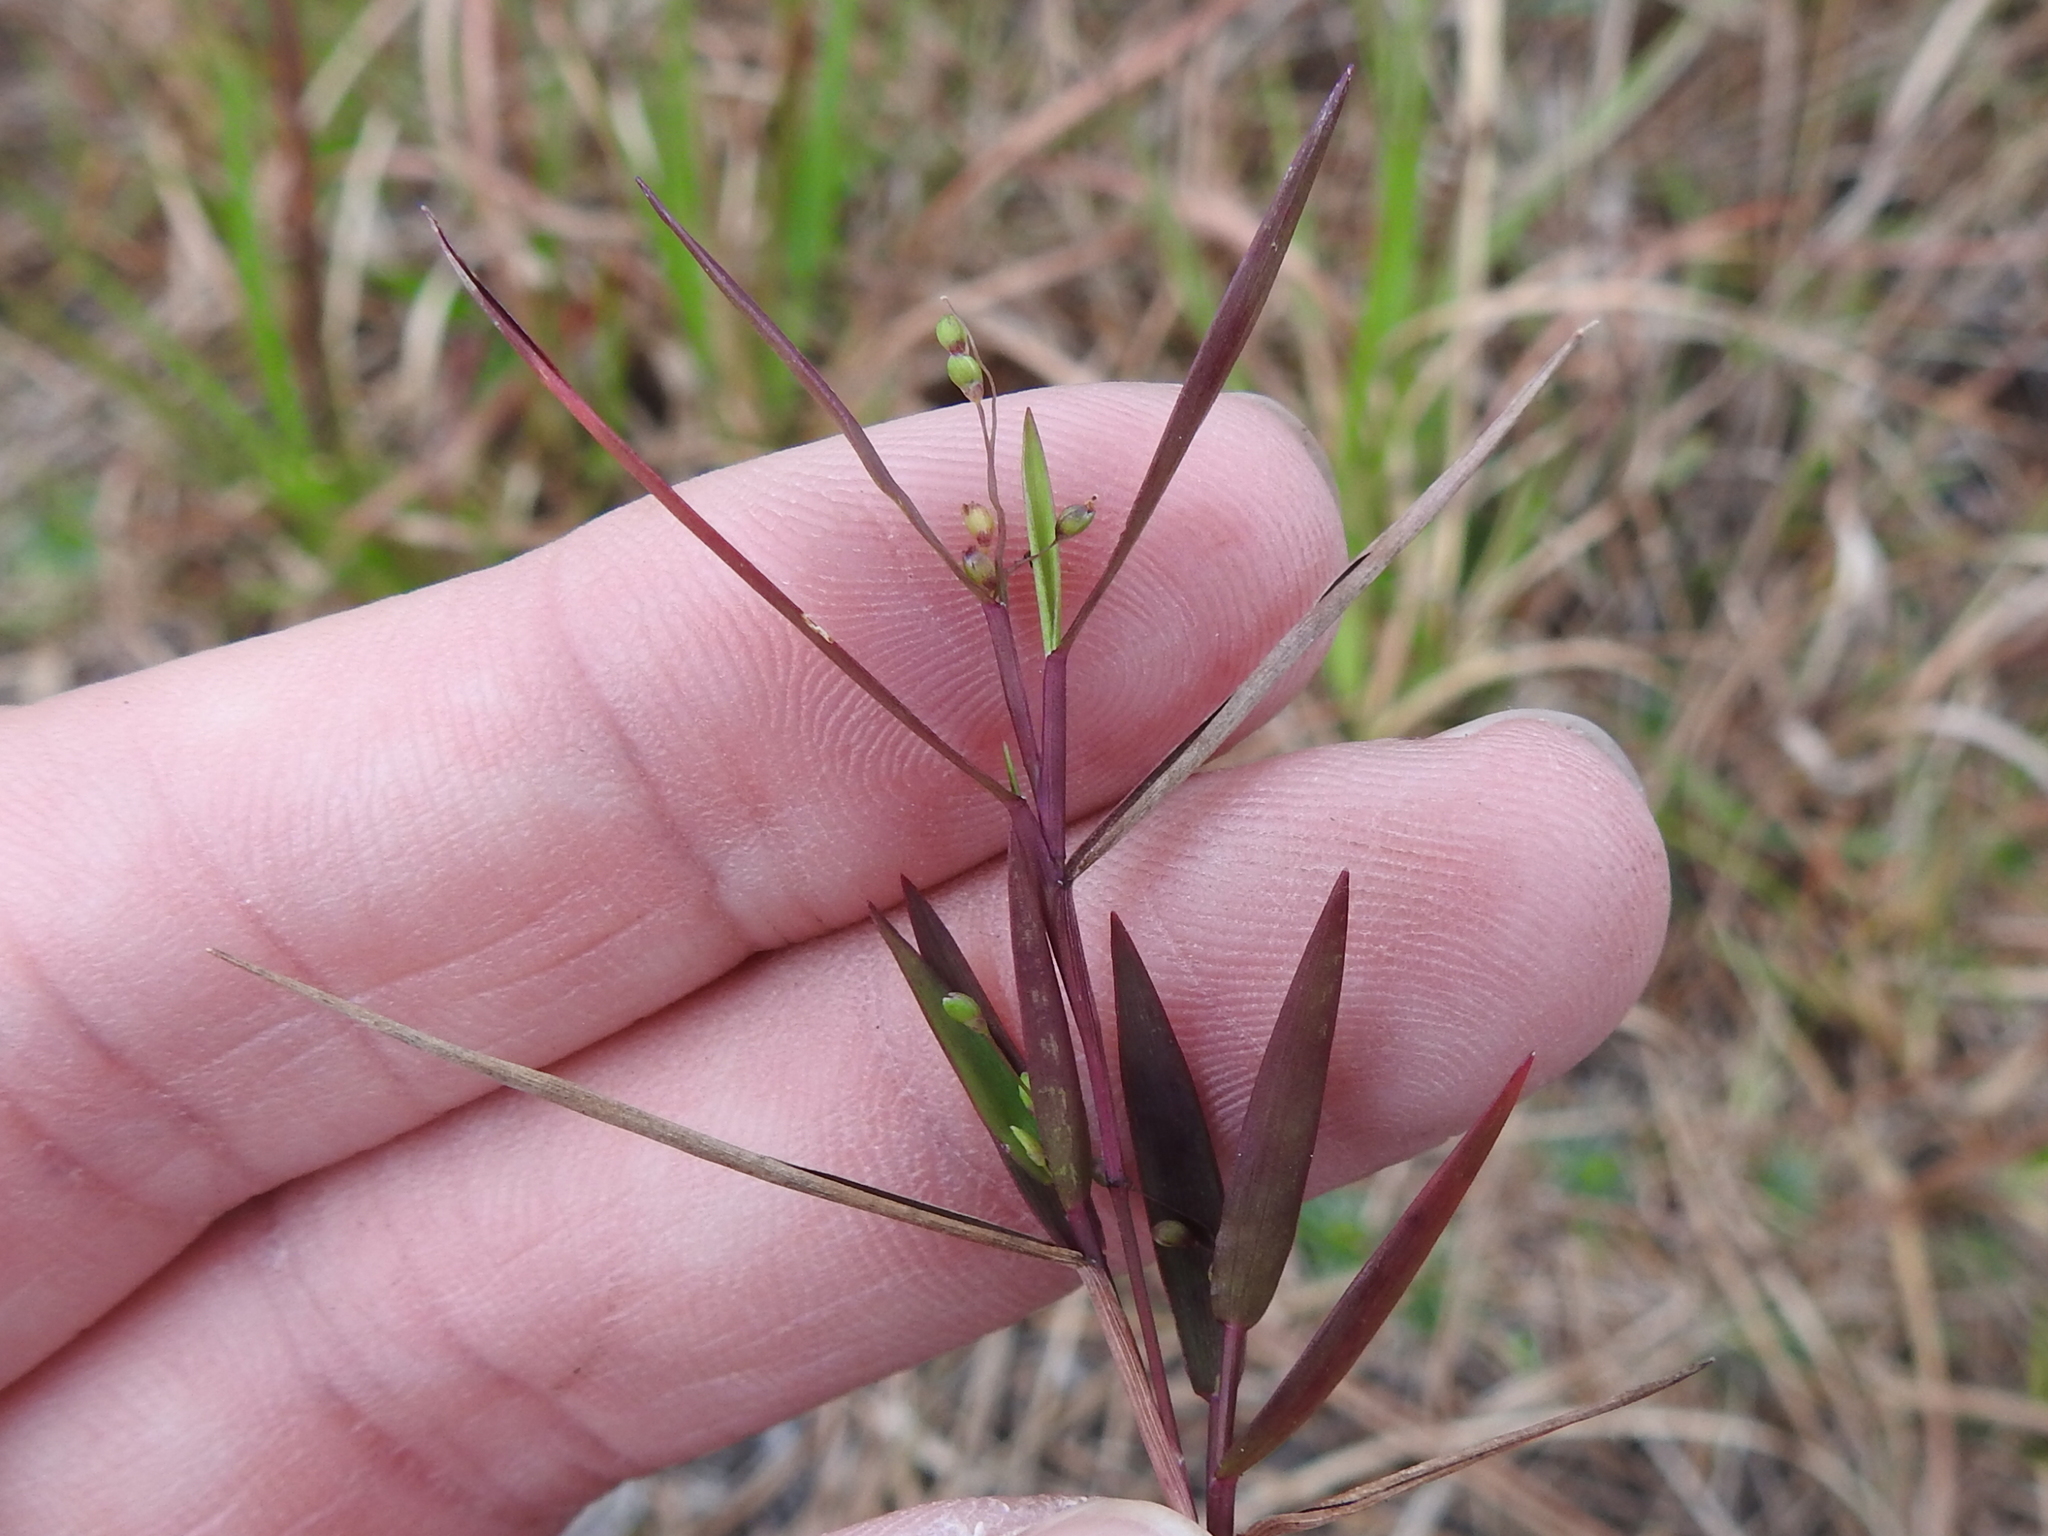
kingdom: Plantae
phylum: Tracheophyta
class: Liliopsida
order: Poales
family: Poaceae
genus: Dichanthelium
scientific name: Dichanthelium portoricense
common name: American panicgrass
